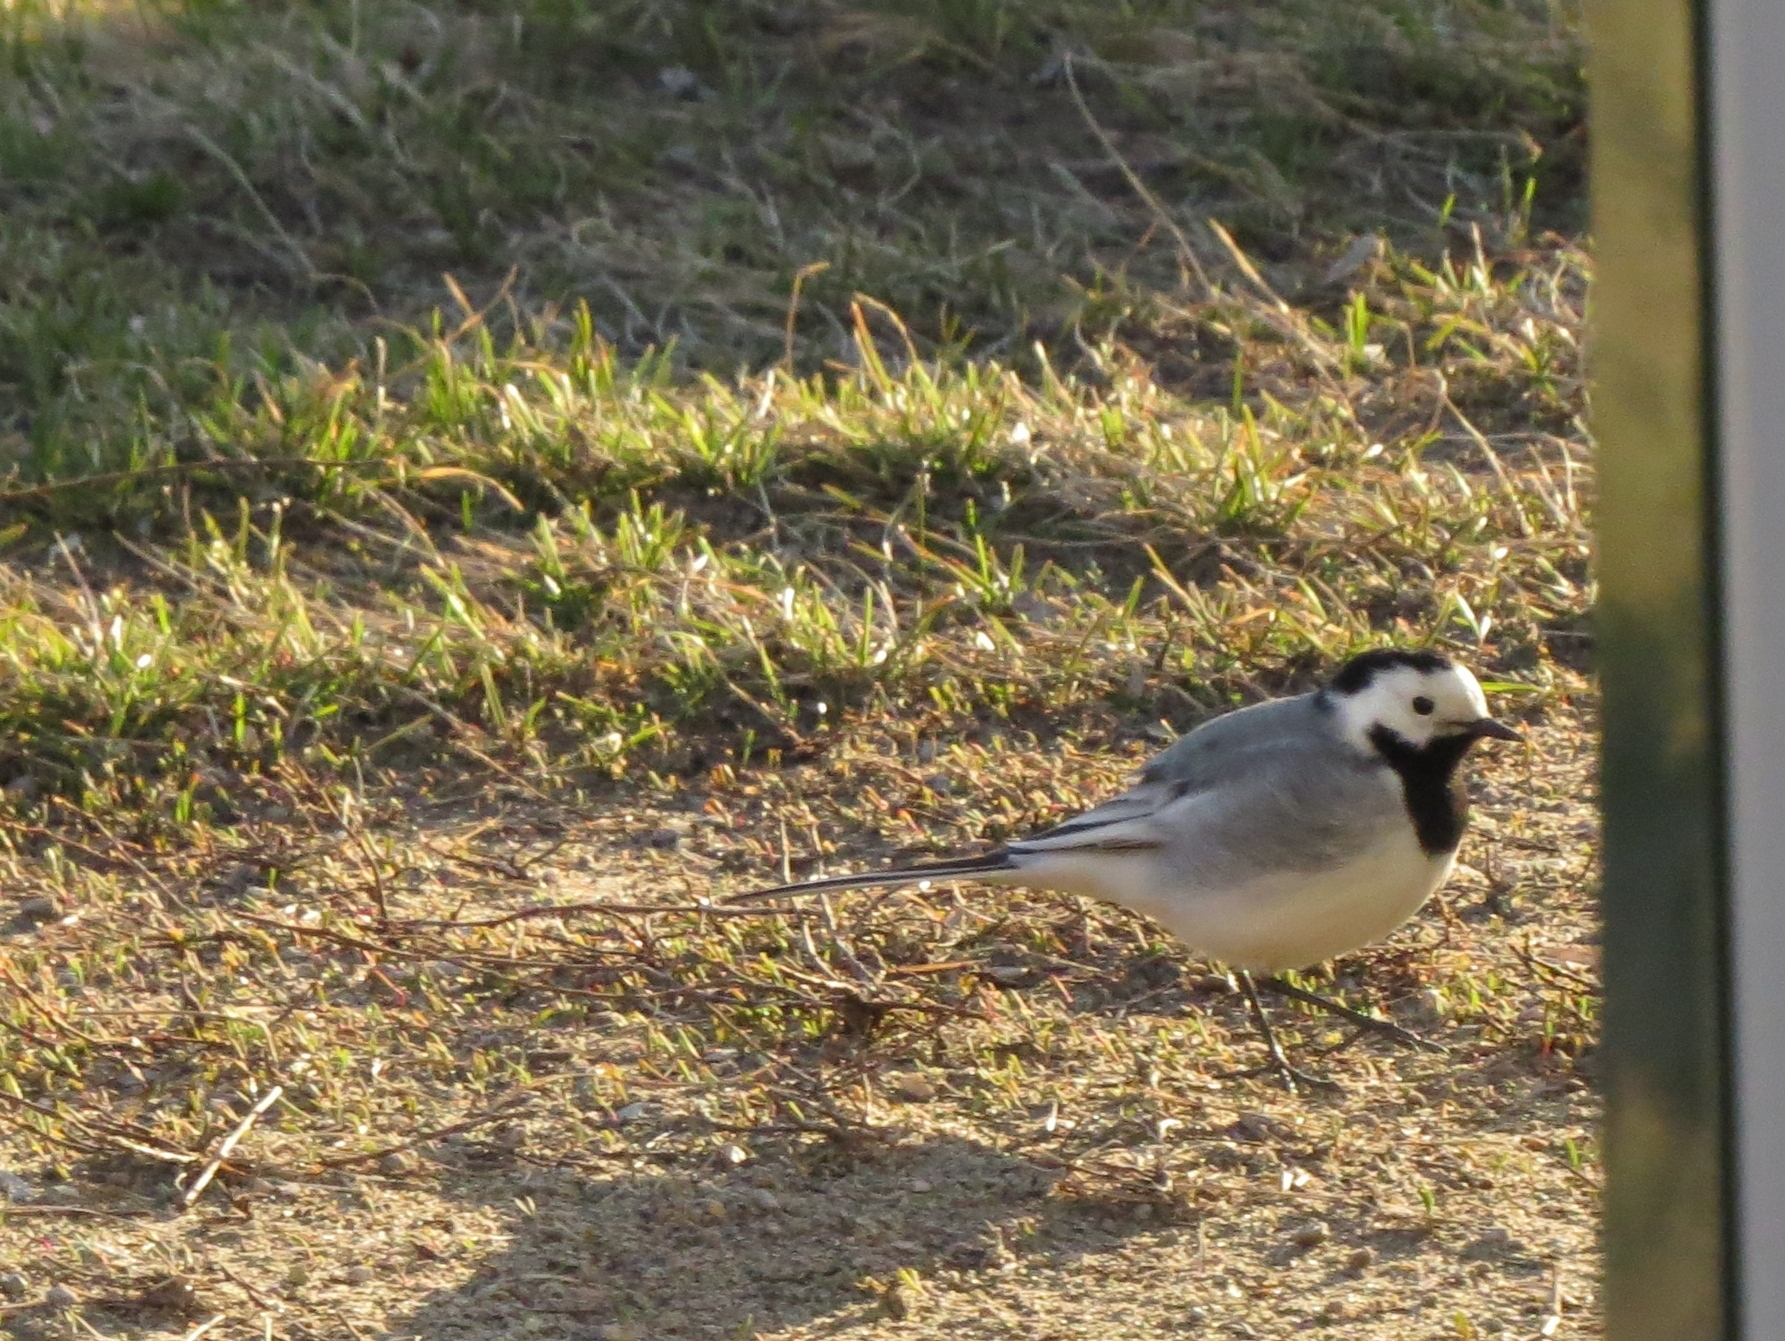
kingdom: Animalia
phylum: Chordata
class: Aves
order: Passeriformes
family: Motacillidae
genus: Motacilla
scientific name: Motacilla alba
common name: White wagtail
